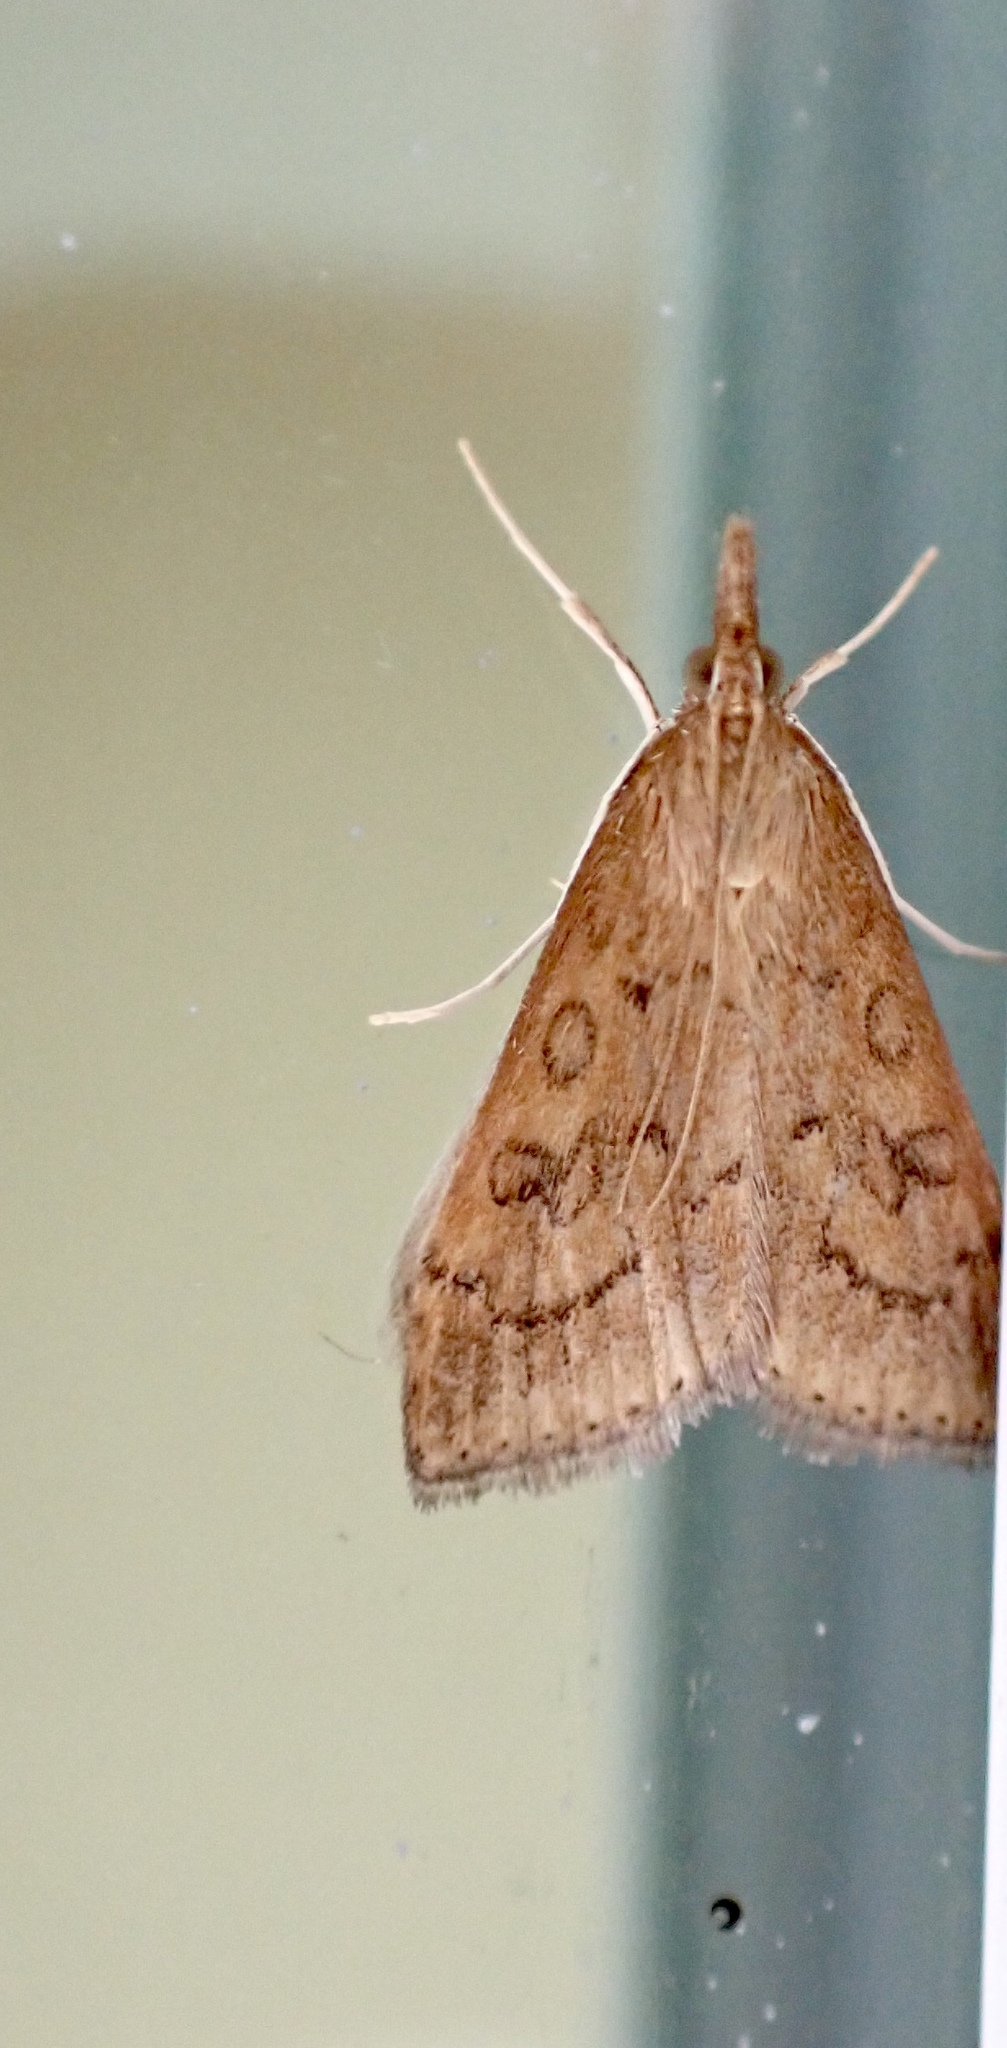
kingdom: Animalia
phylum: Arthropoda
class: Insecta
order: Lepidoptera
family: Crambidae
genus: Udea
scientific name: Udea rubigalis
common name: Celery leaftier moth
